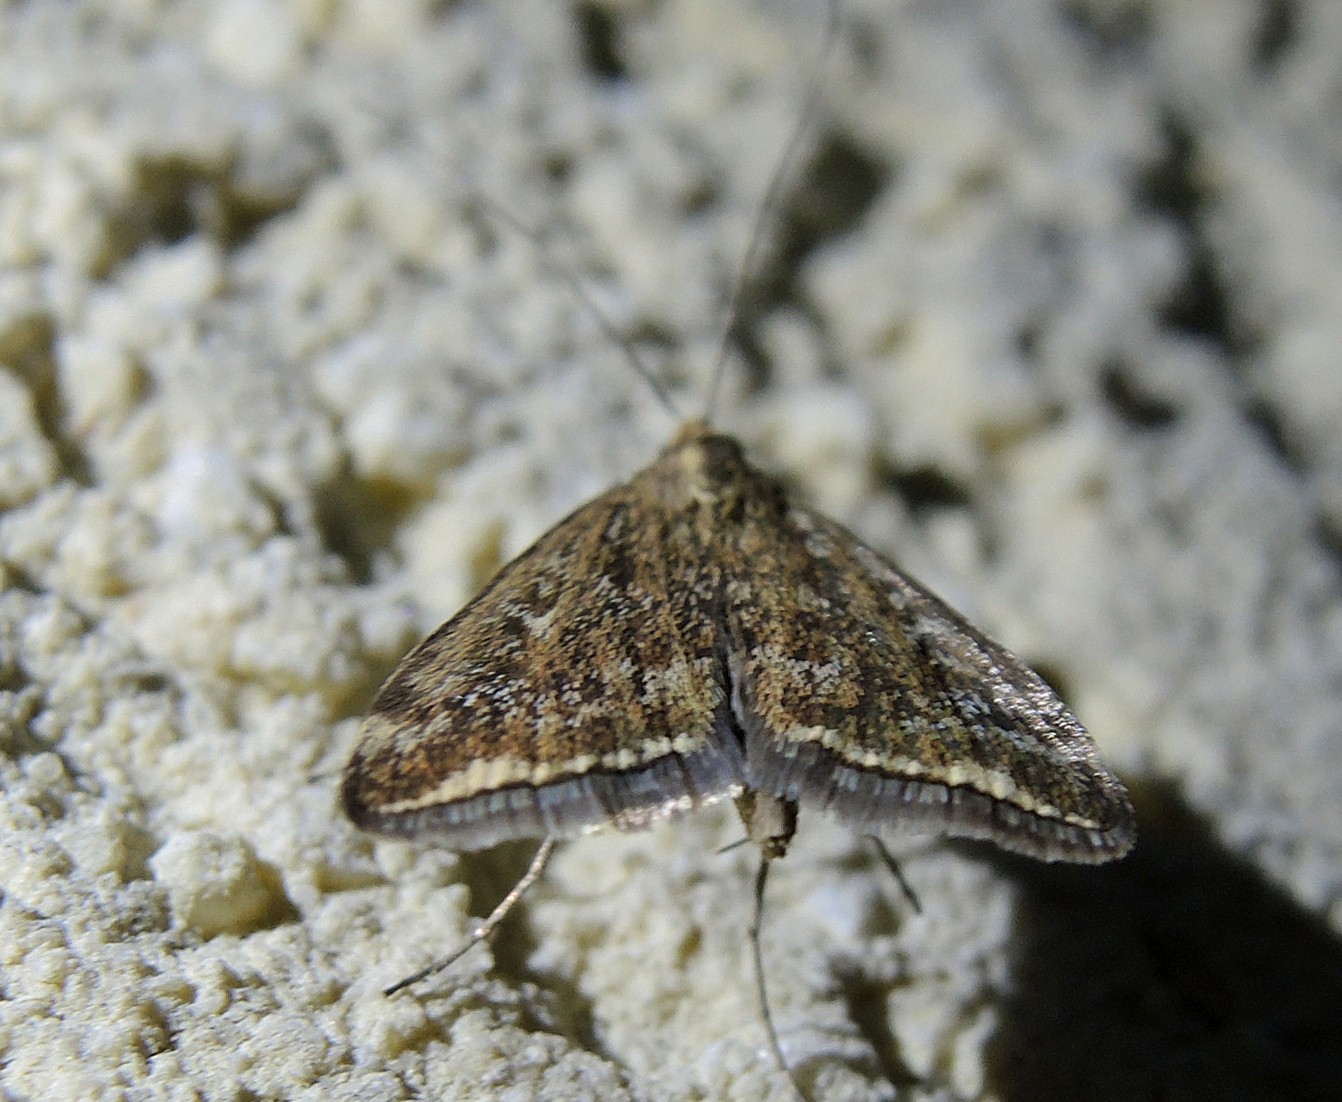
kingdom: Animalia
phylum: Arthropoda
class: Insecta
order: Lepidoptera
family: Crambidae
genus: Loxostege
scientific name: Loxostege sticticalis
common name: Crambid moth
